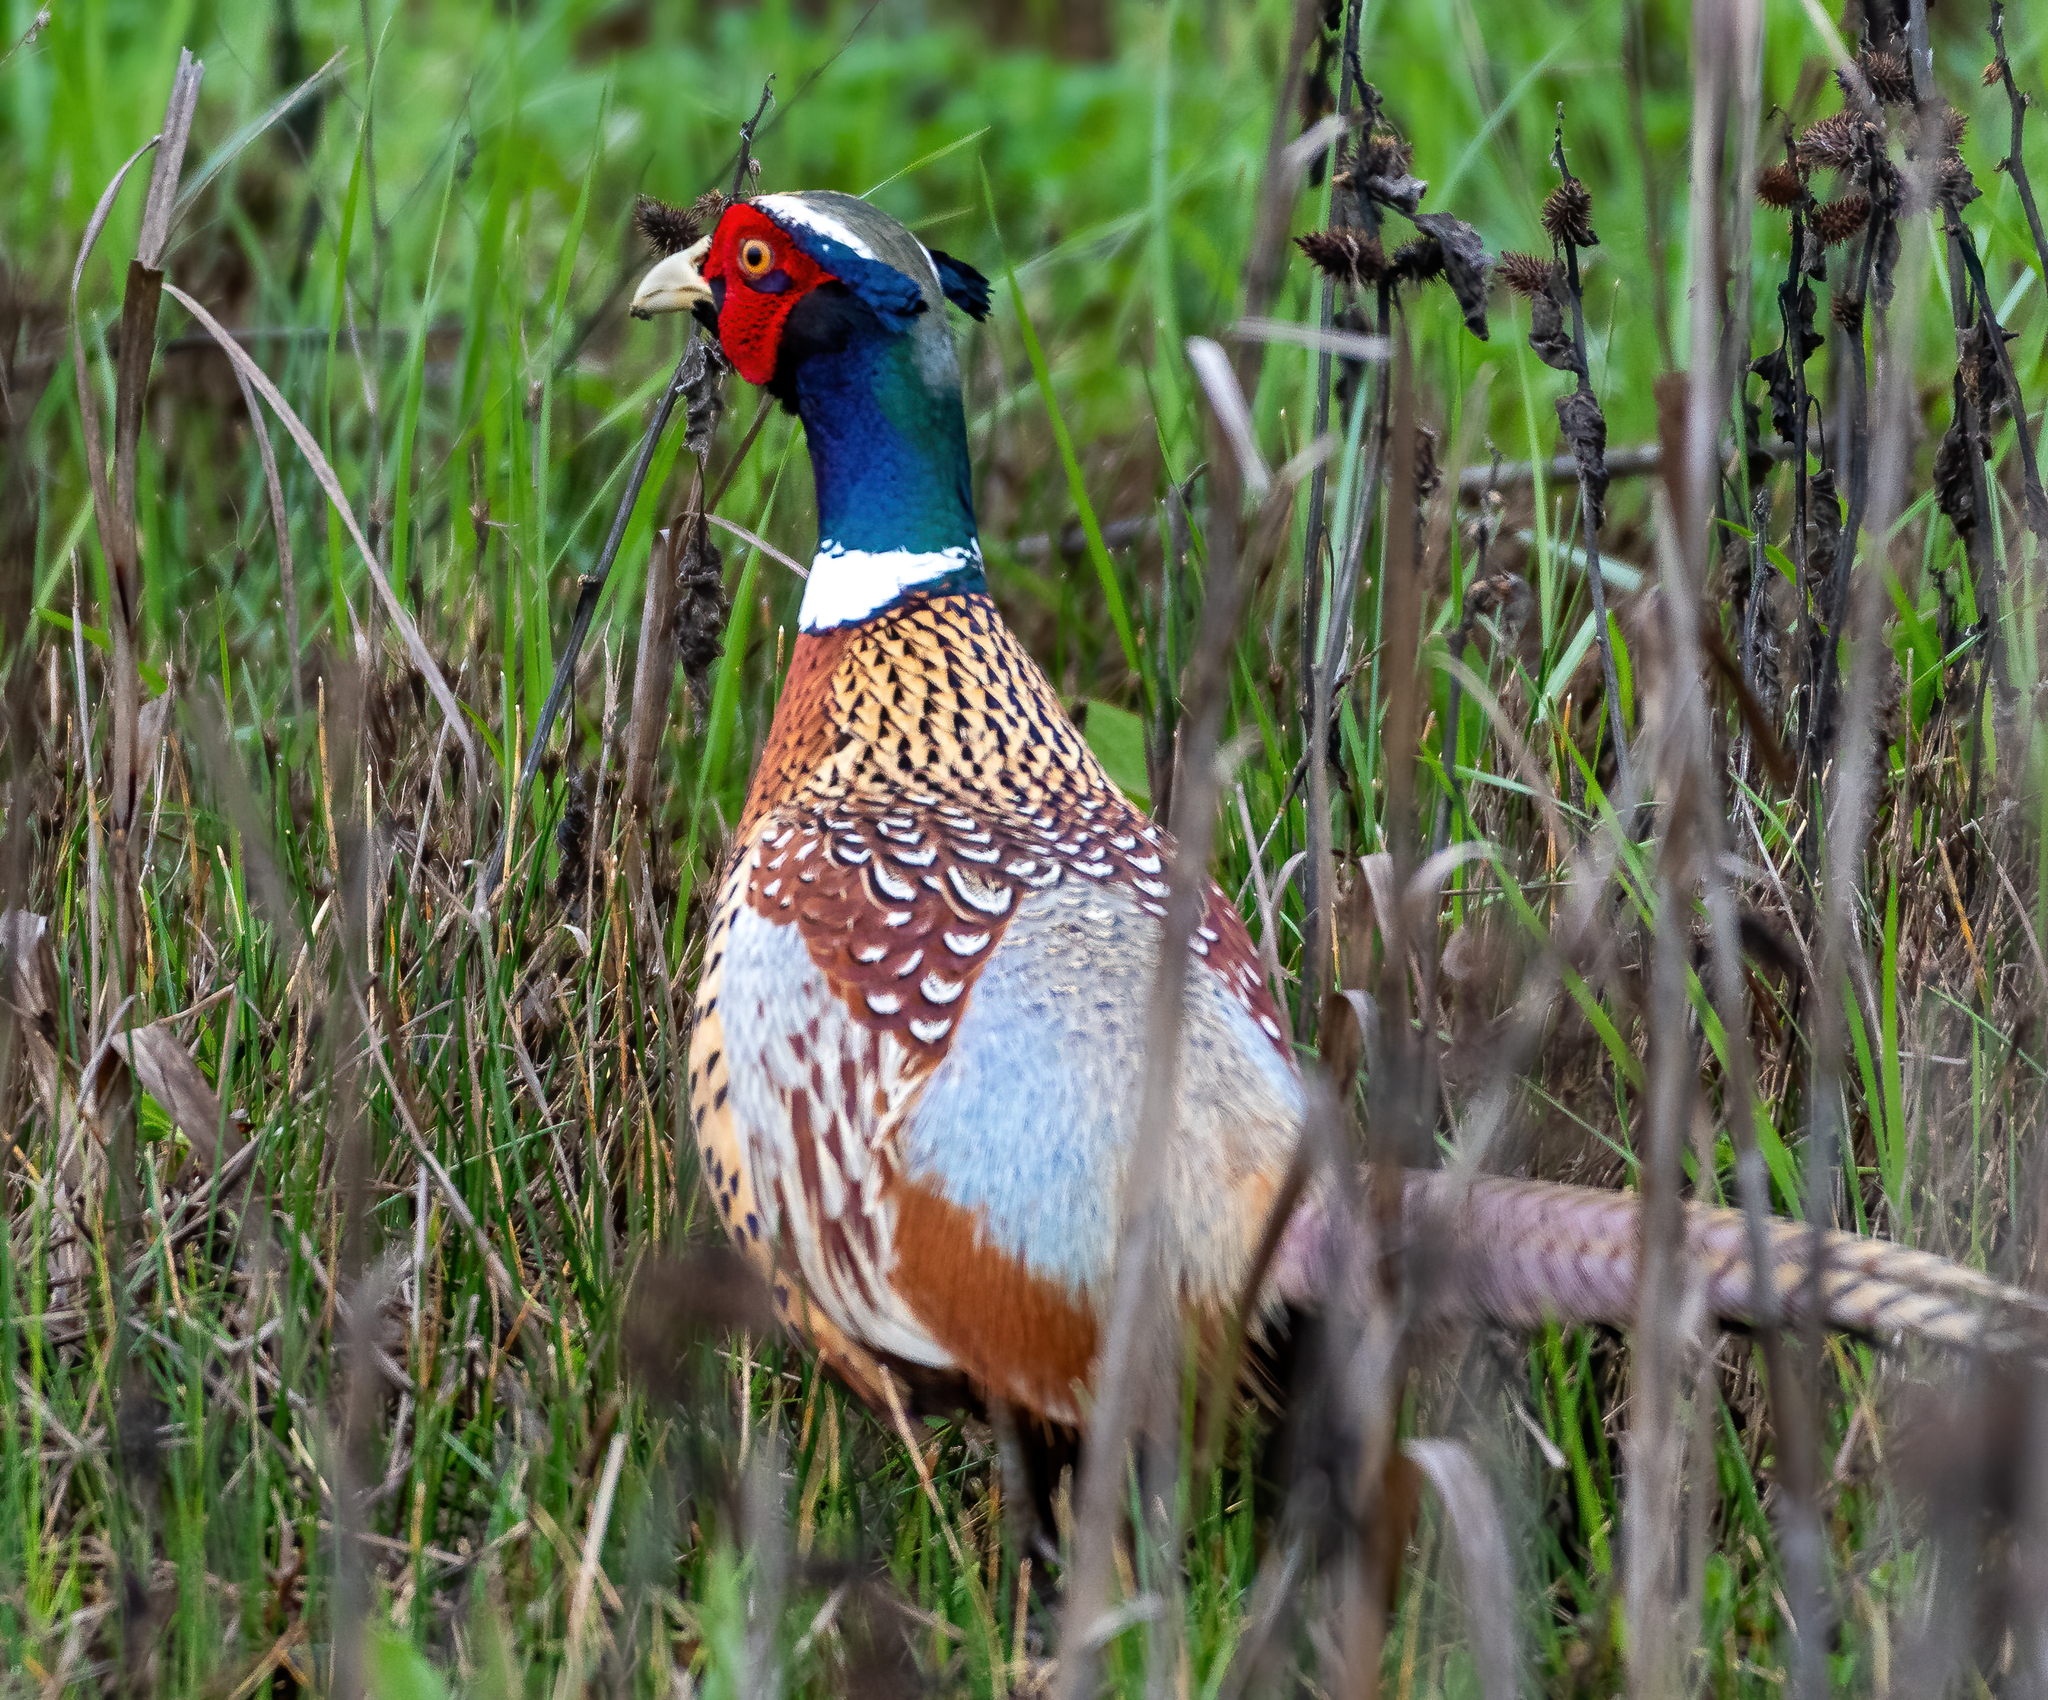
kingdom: Animalia
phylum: Chordata
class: Aves
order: Galliformes
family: Phasianidae
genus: Phasianus
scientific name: Phasianus colchicus
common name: Common pheasant
